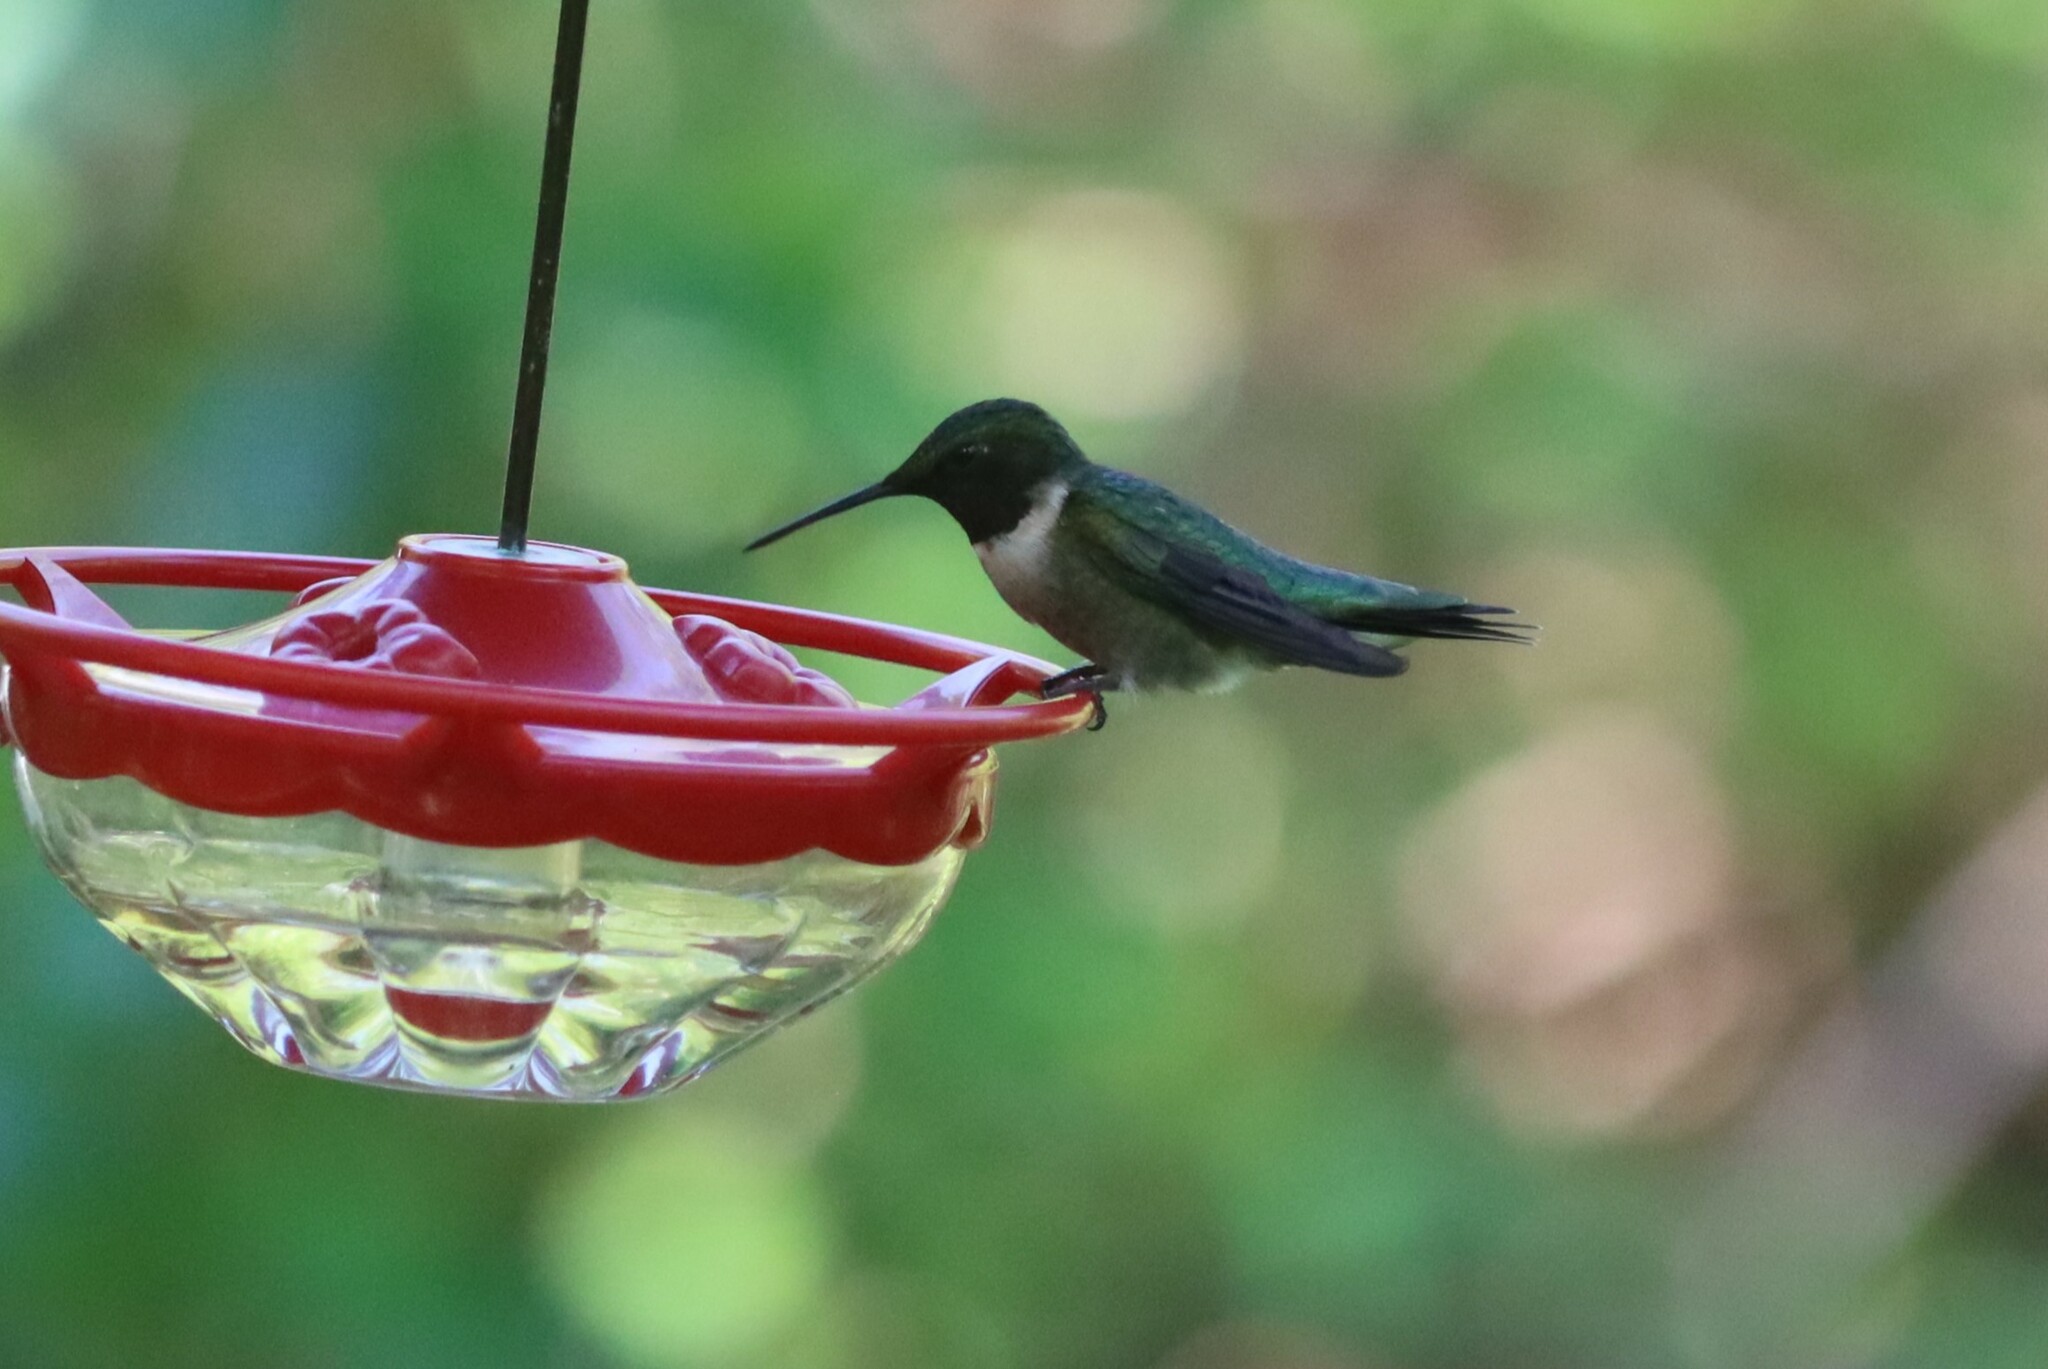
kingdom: Animalia
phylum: Chordata
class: Aves
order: Apodiformes
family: Trochilidae
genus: Archilochus
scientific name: Archilochus colubris
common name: Ruby-throated hummingbird
